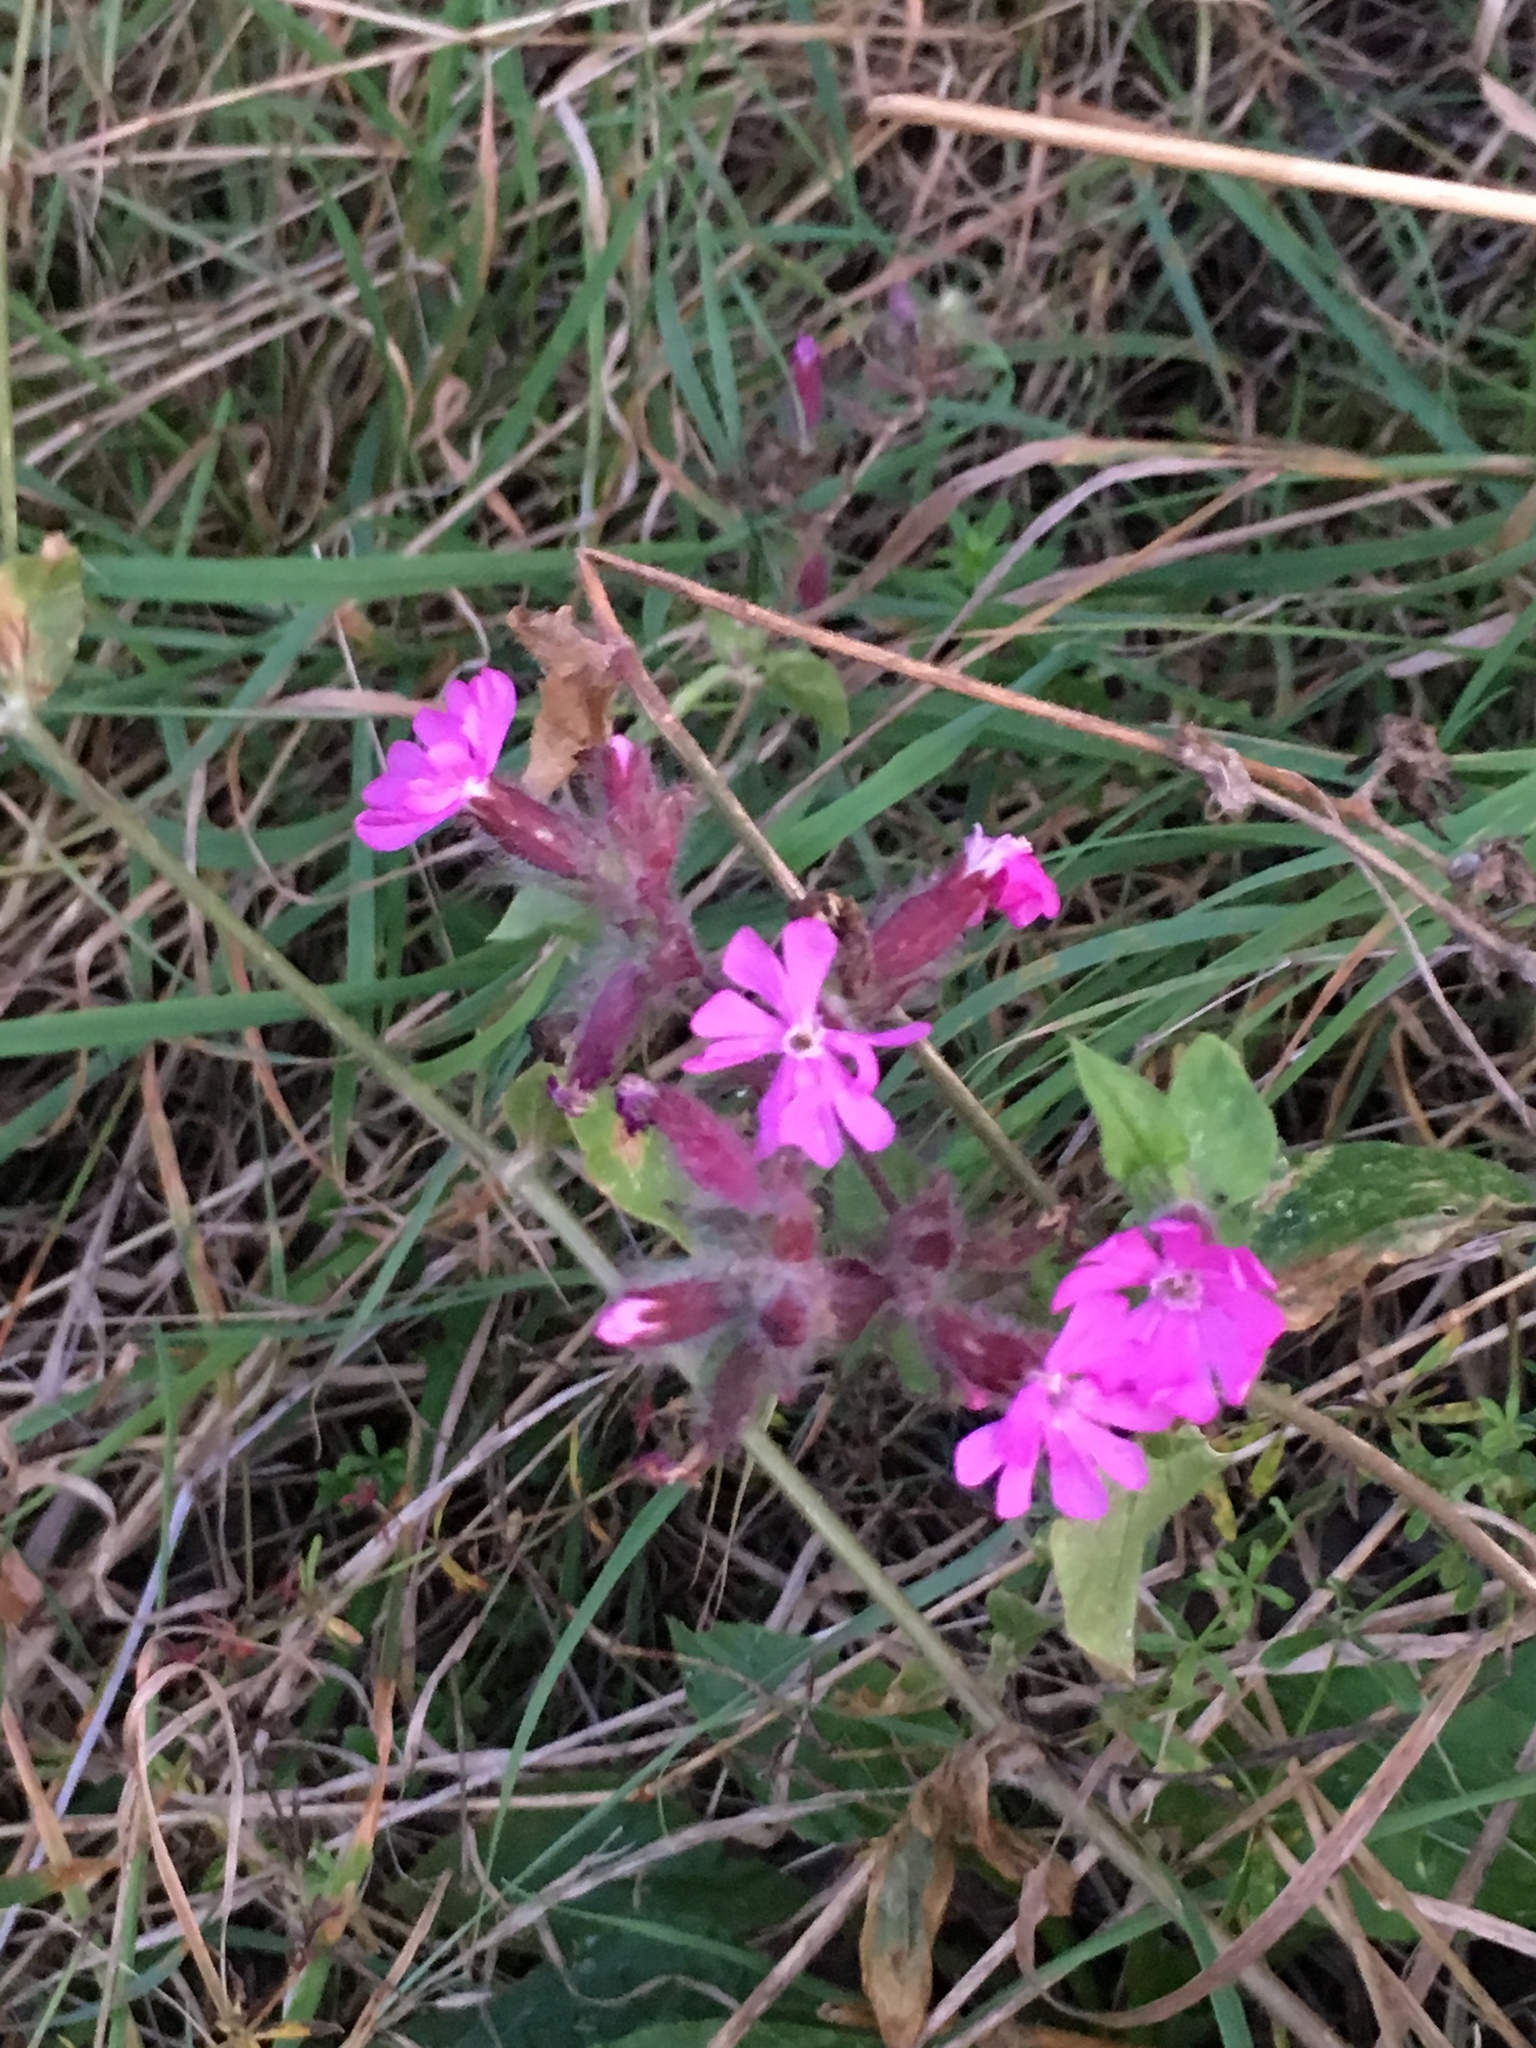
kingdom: Plantae
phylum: Tracheophyta
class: Magnoliopsida
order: Caryophyllales
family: Caryophyllaceae
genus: Silene
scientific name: Silene dioica
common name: Red campion
